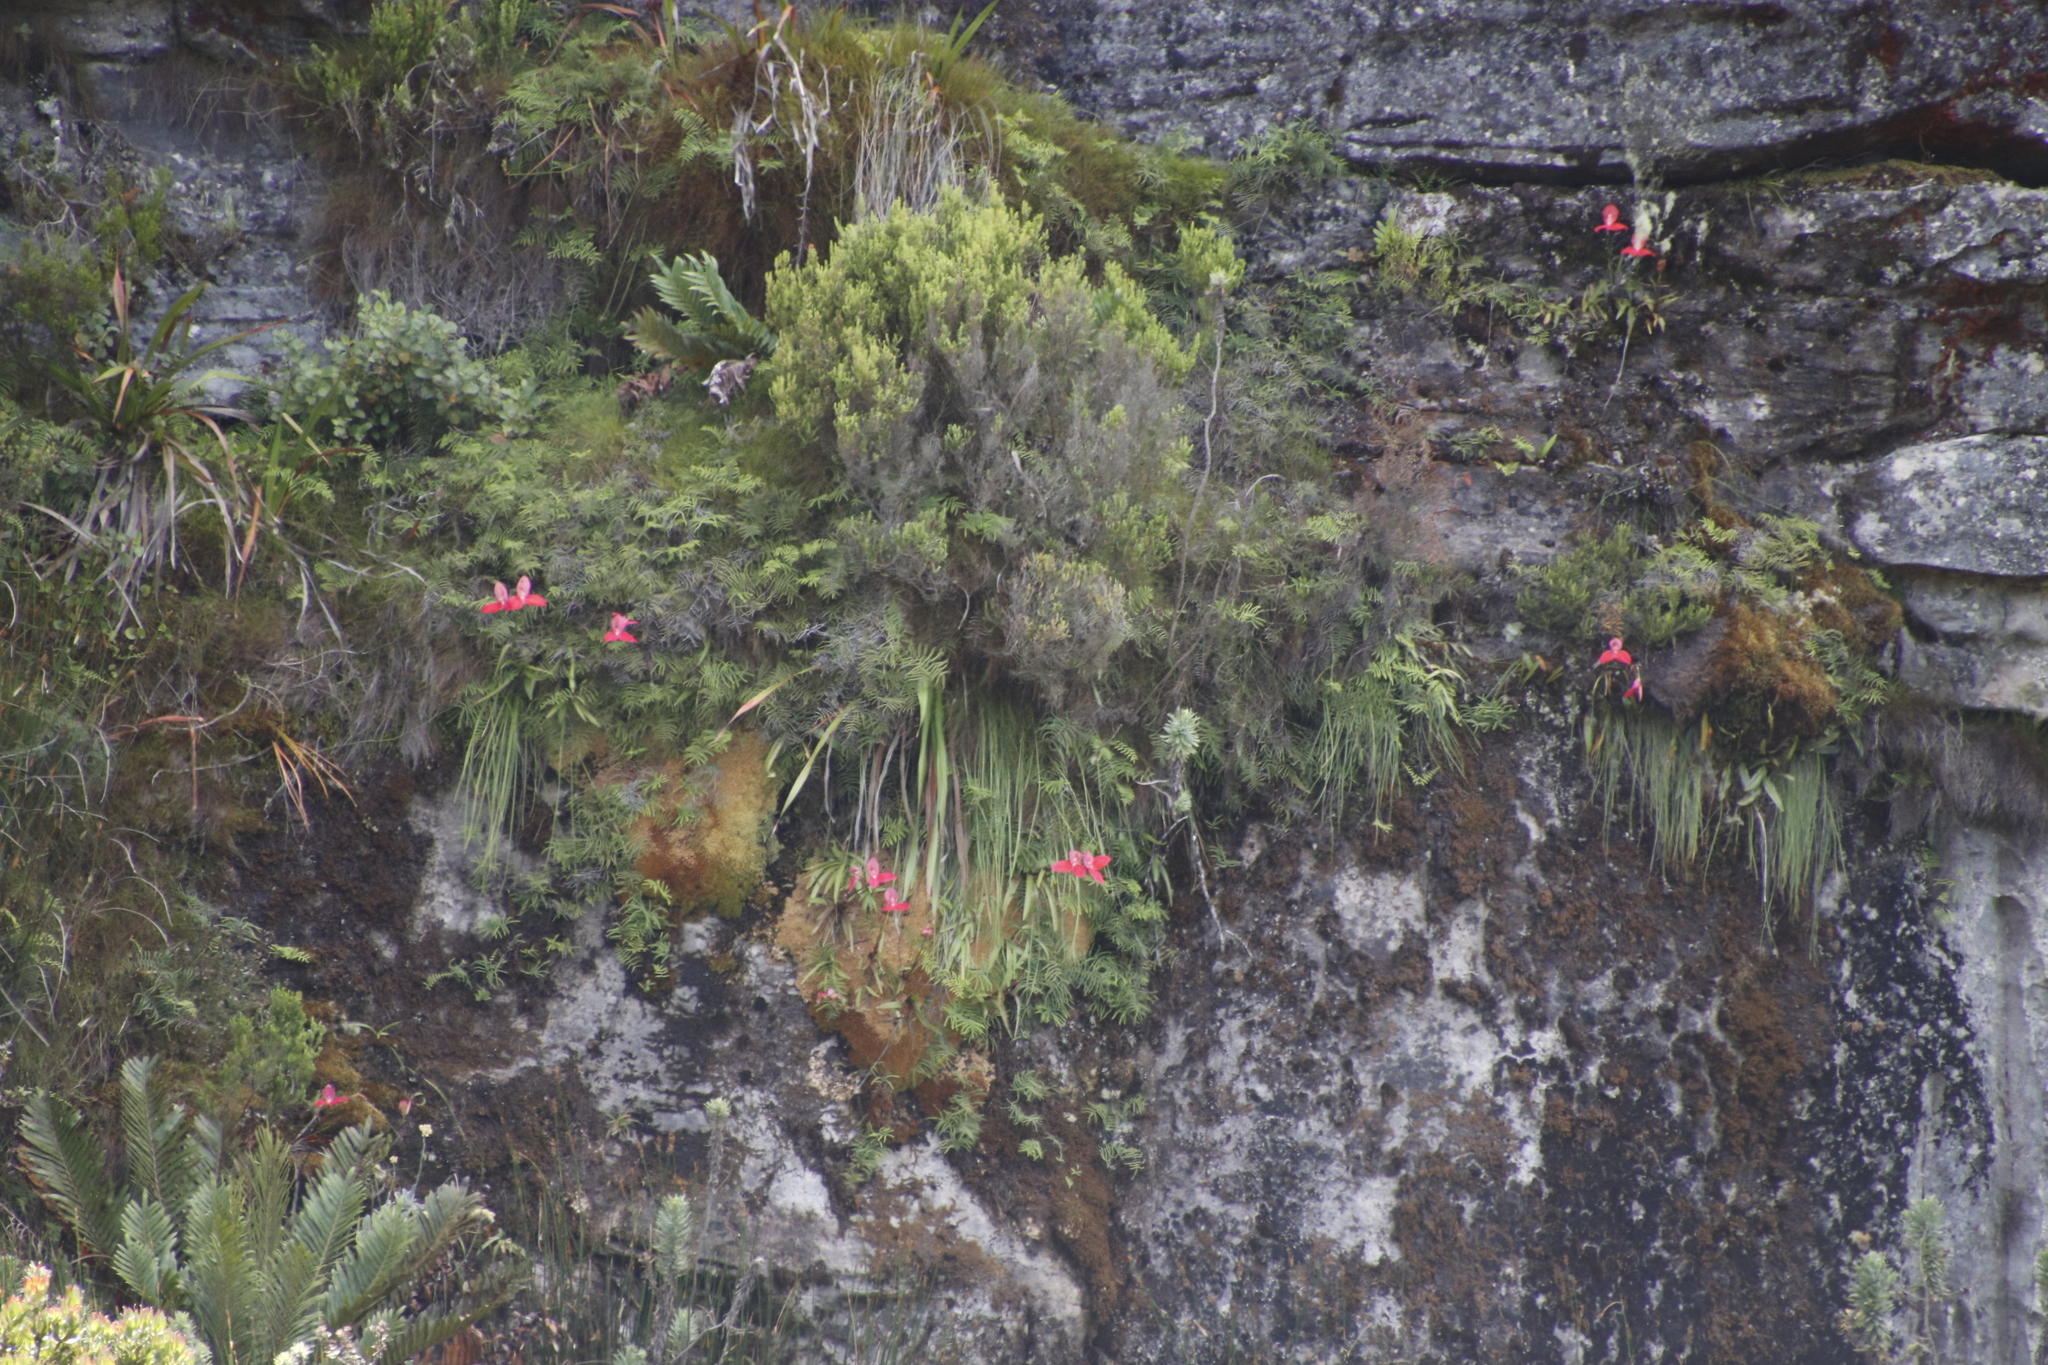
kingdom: Plantae
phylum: Tracheophyta
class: Liliopsida
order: Asparagales
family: Orchidaceae
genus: Disa
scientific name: Disa uniflora
